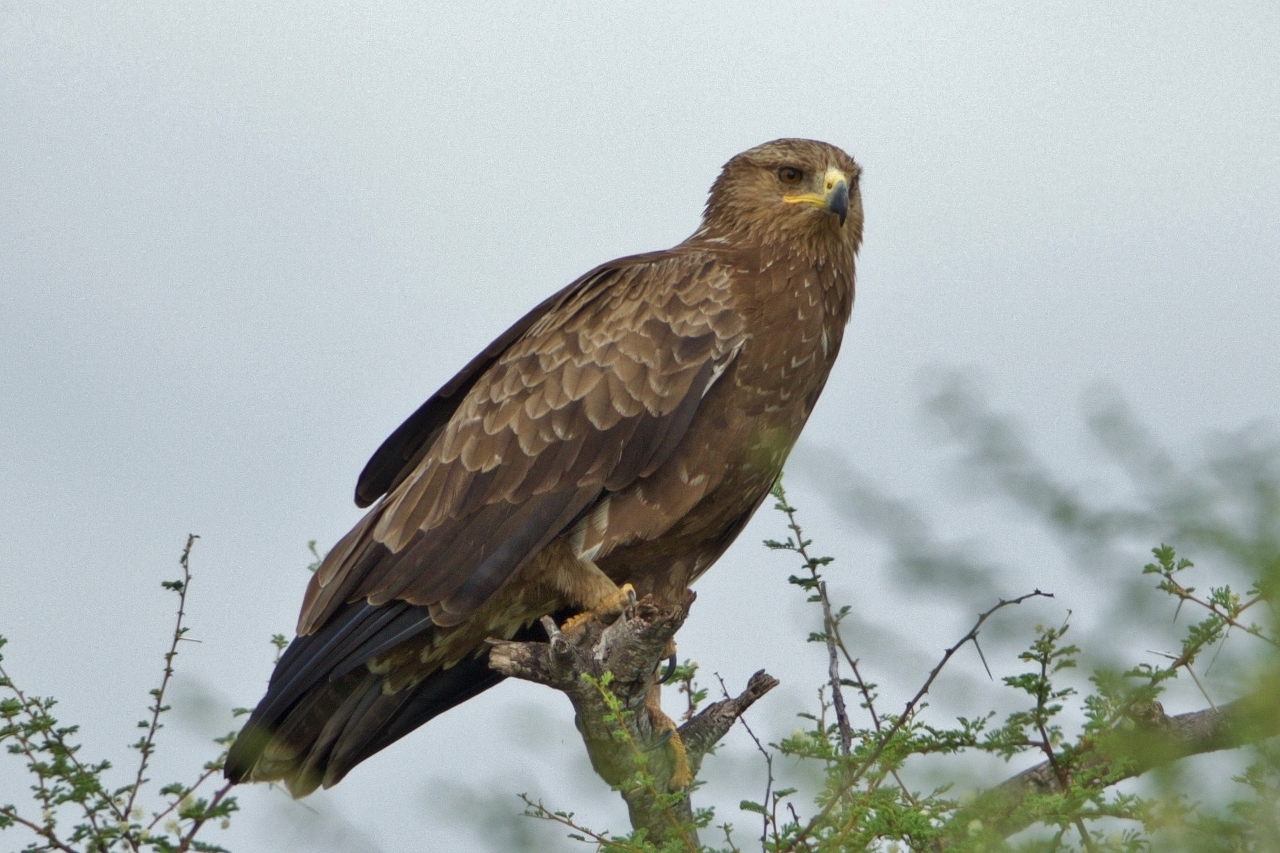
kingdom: Animalia
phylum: Chordata
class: Aves
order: Accipitriformes
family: Accipitridae
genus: Aquila
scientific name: Aquila pomarina
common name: Lesser spotted eagle
